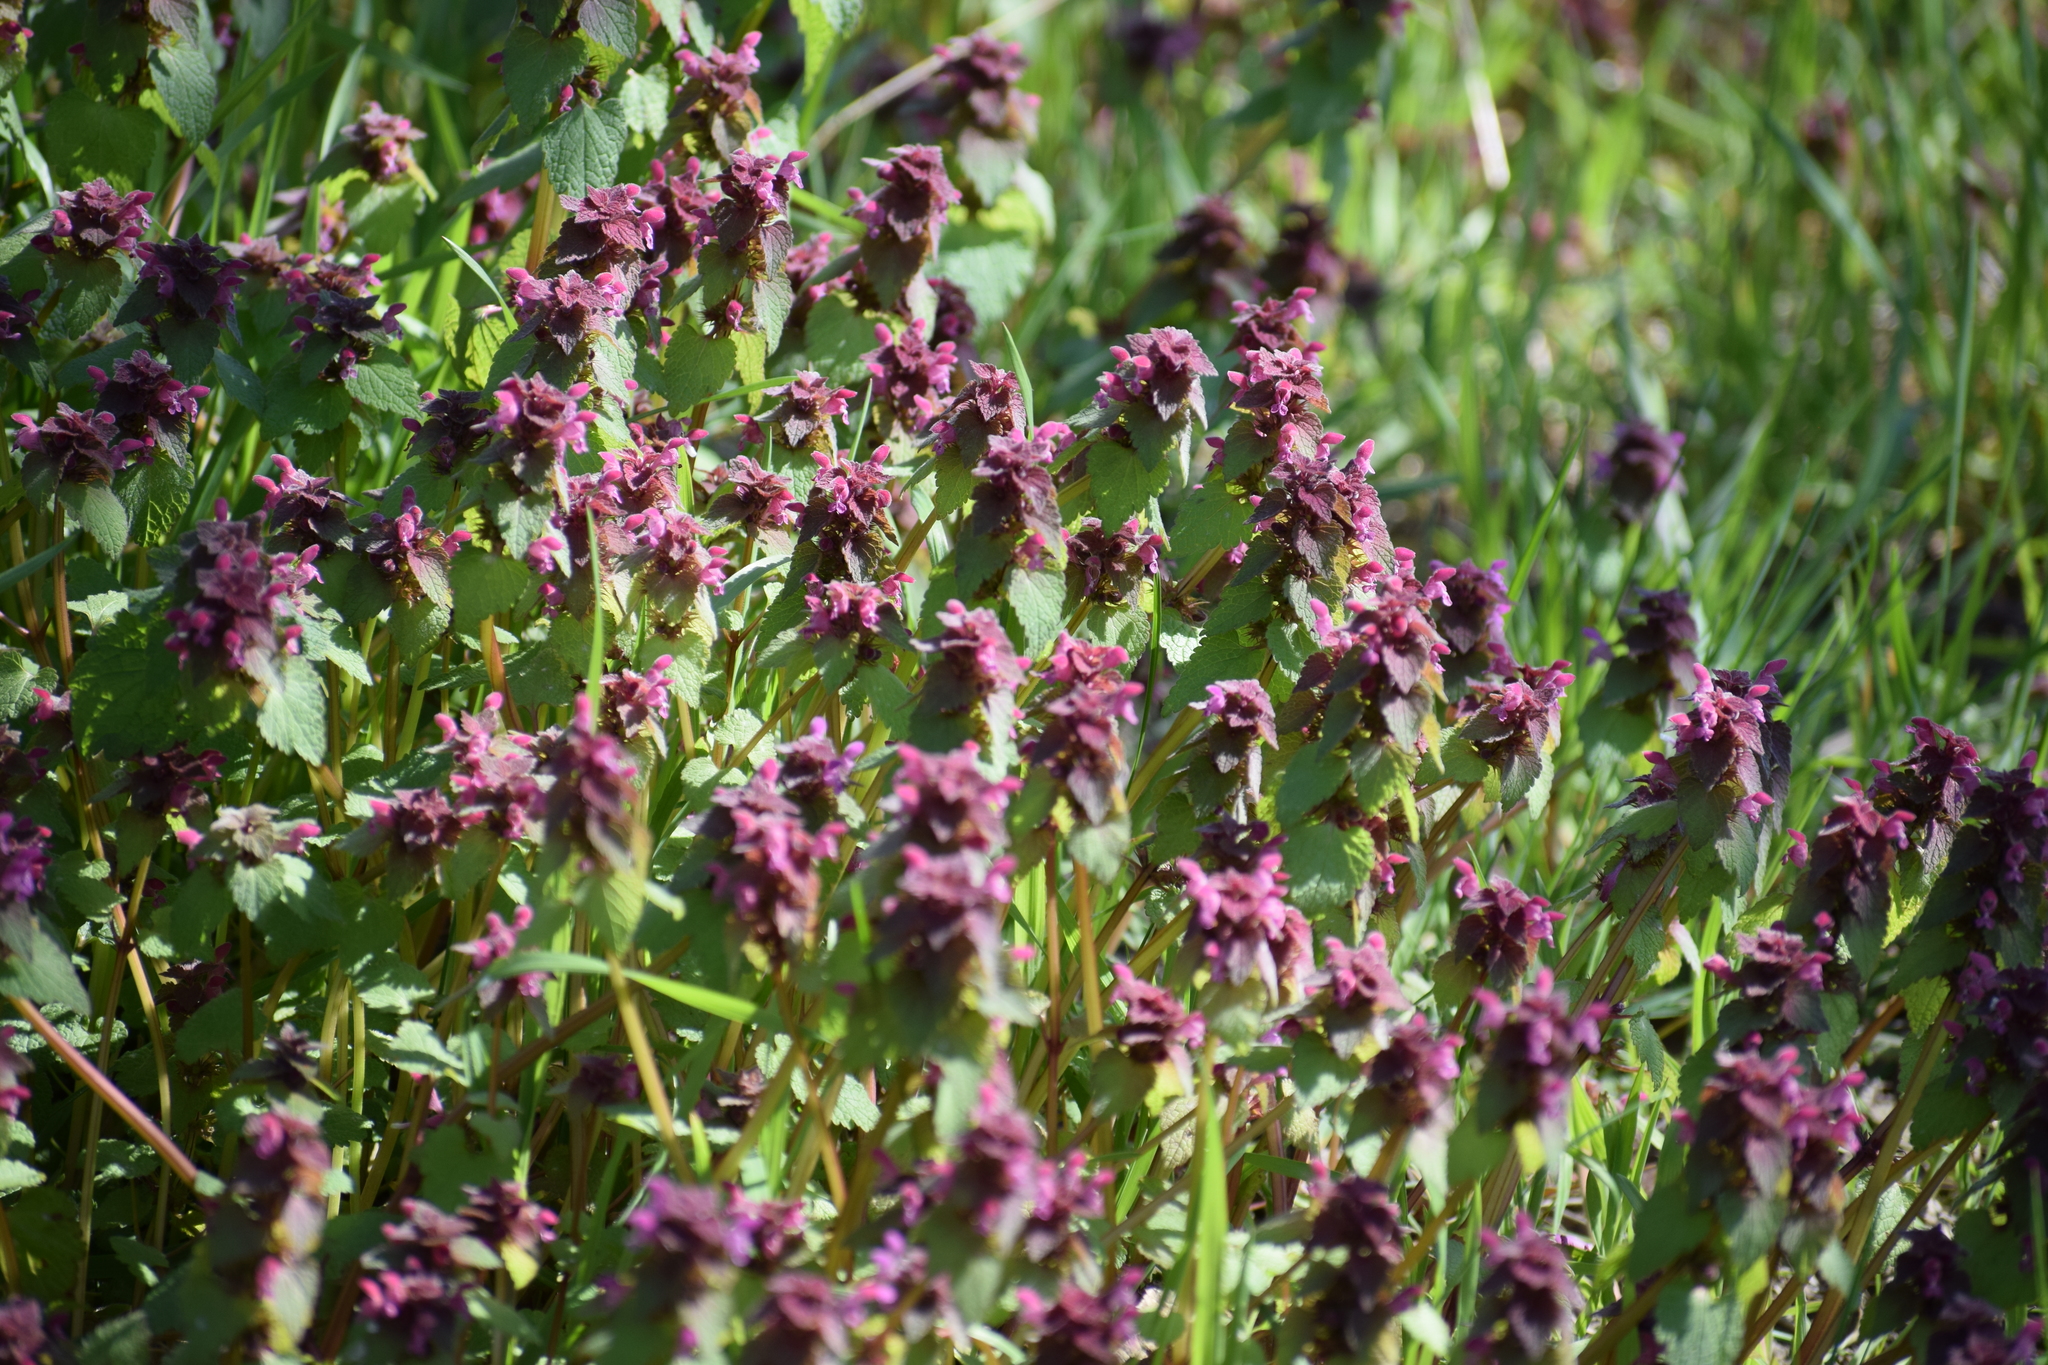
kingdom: Plantae
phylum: Tracheophyta
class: Magnoliopsida
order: Lamiales
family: Lamiaceae
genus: Lamium
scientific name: Lamium purpureum
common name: Red dead-nettle
